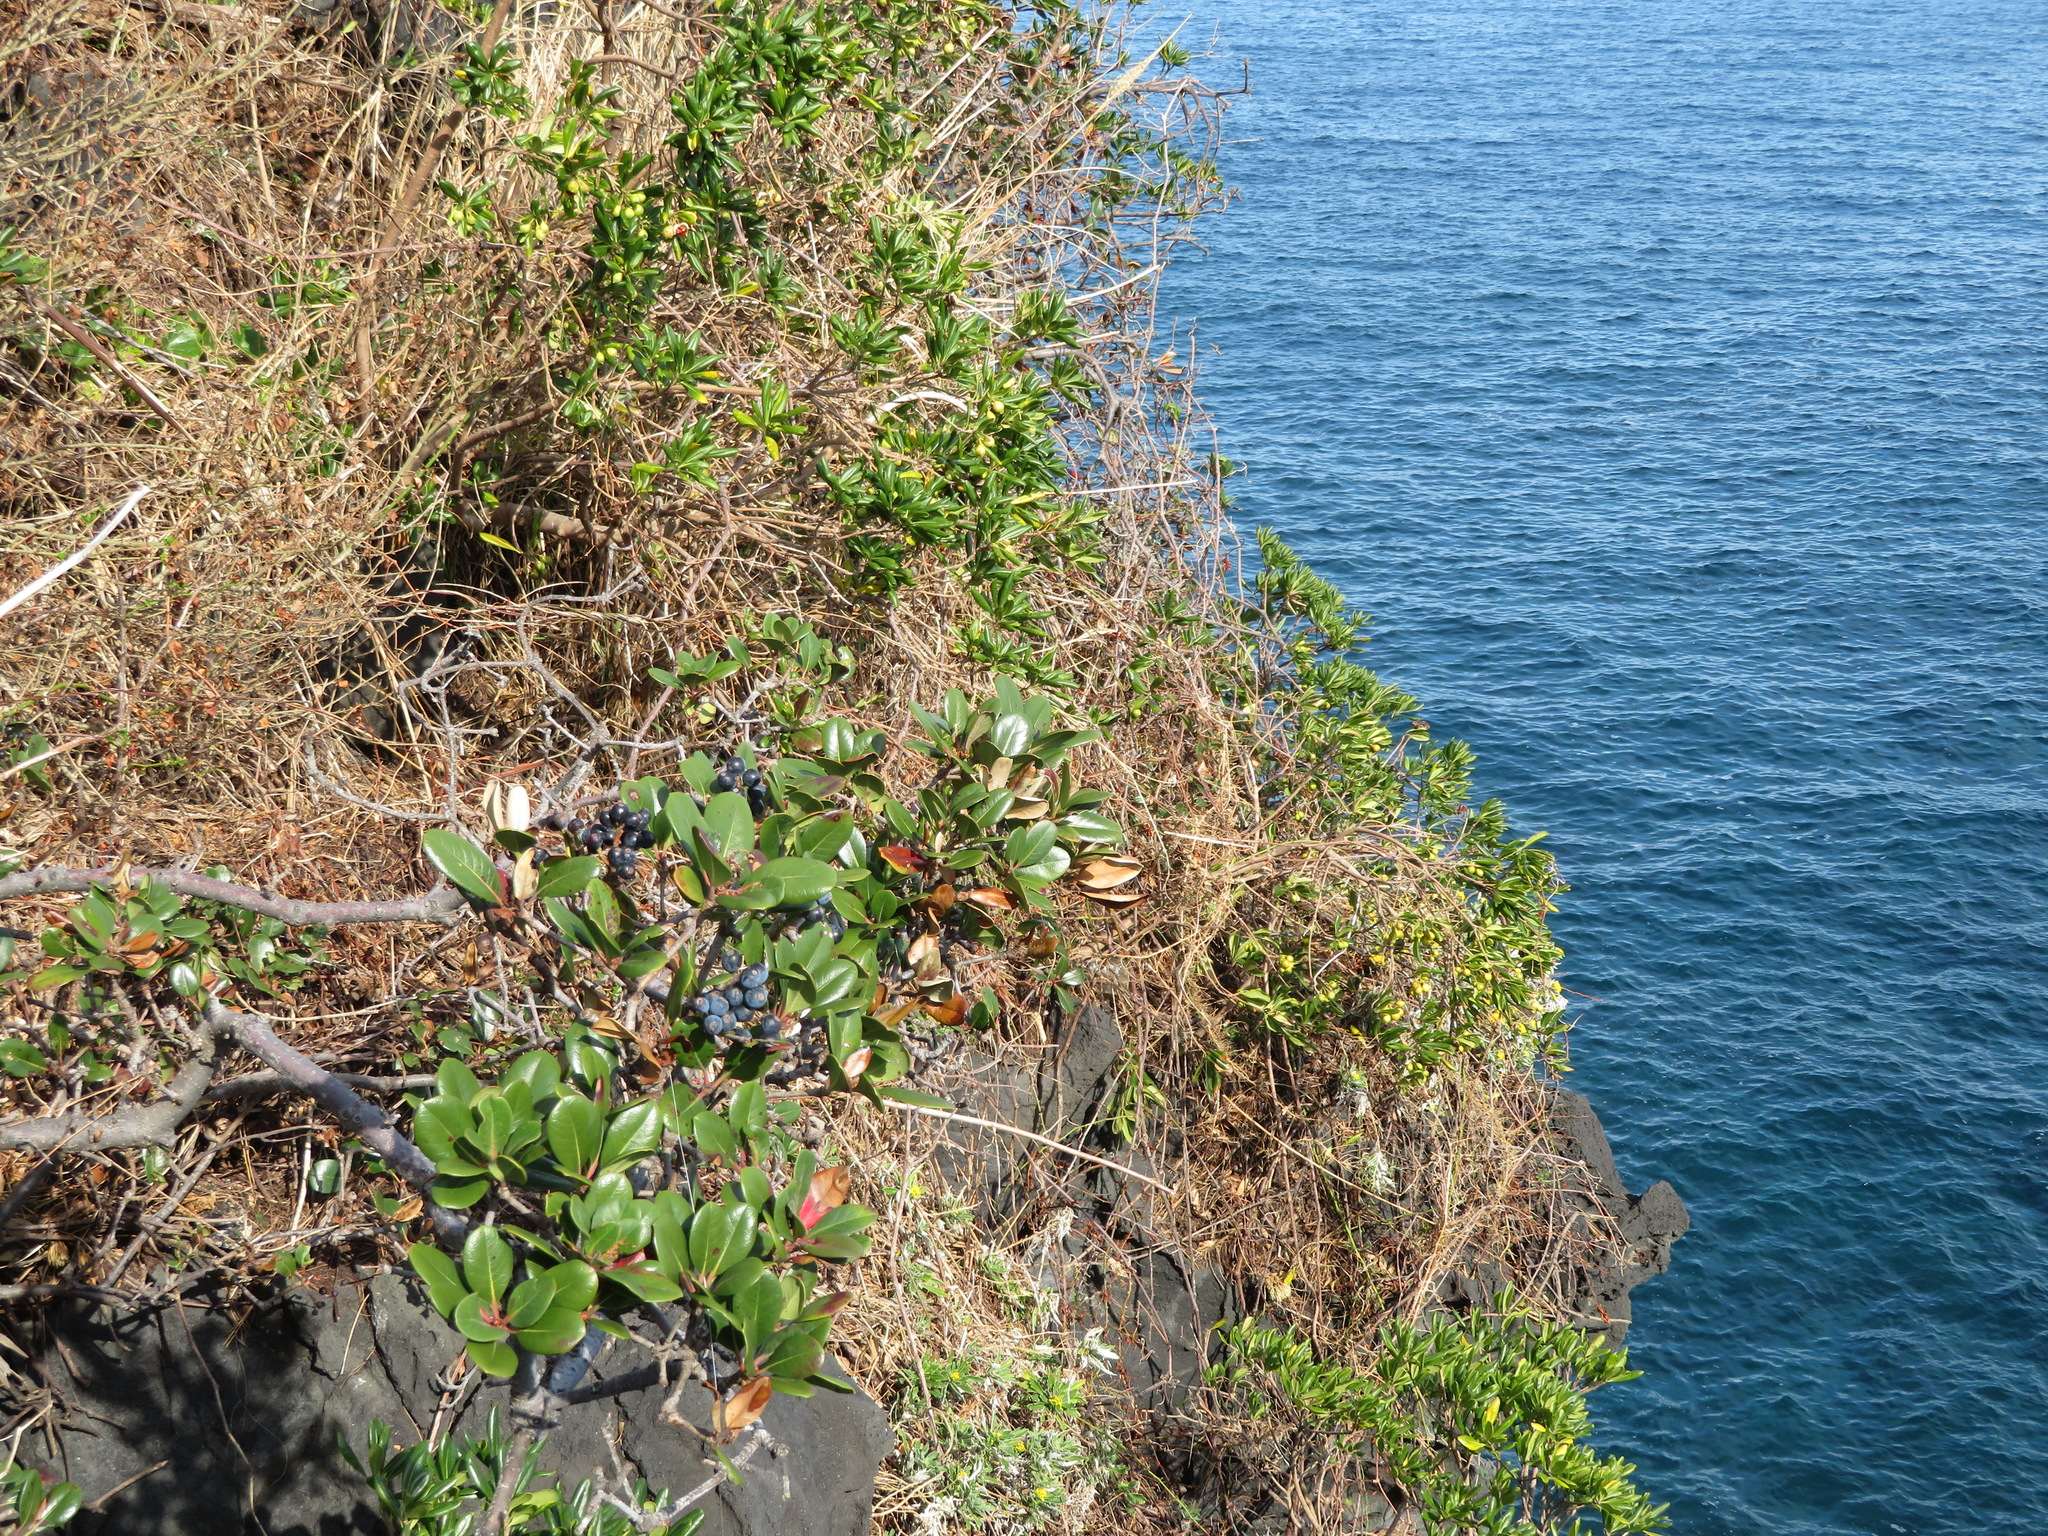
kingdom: Plantae
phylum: Tracheophyta
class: Magnoliopsida
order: Rosales
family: Rosaceae
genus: Rhaphiolepis
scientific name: Rhaphiolepis umbellata
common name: Yedda-hawthorn
